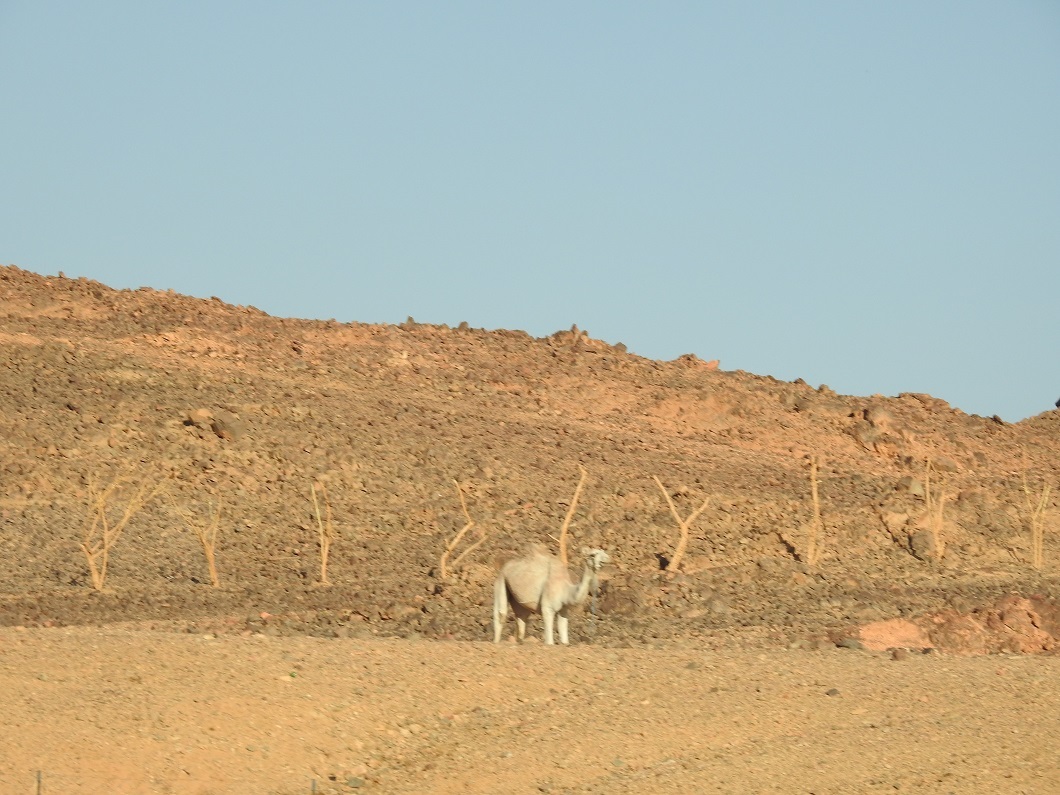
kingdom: Animalia
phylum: Chordata
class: Mammalia
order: Artiodactyla
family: Camelidae
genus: Camelus
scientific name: Camelus dromedarius
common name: One-humped camel
